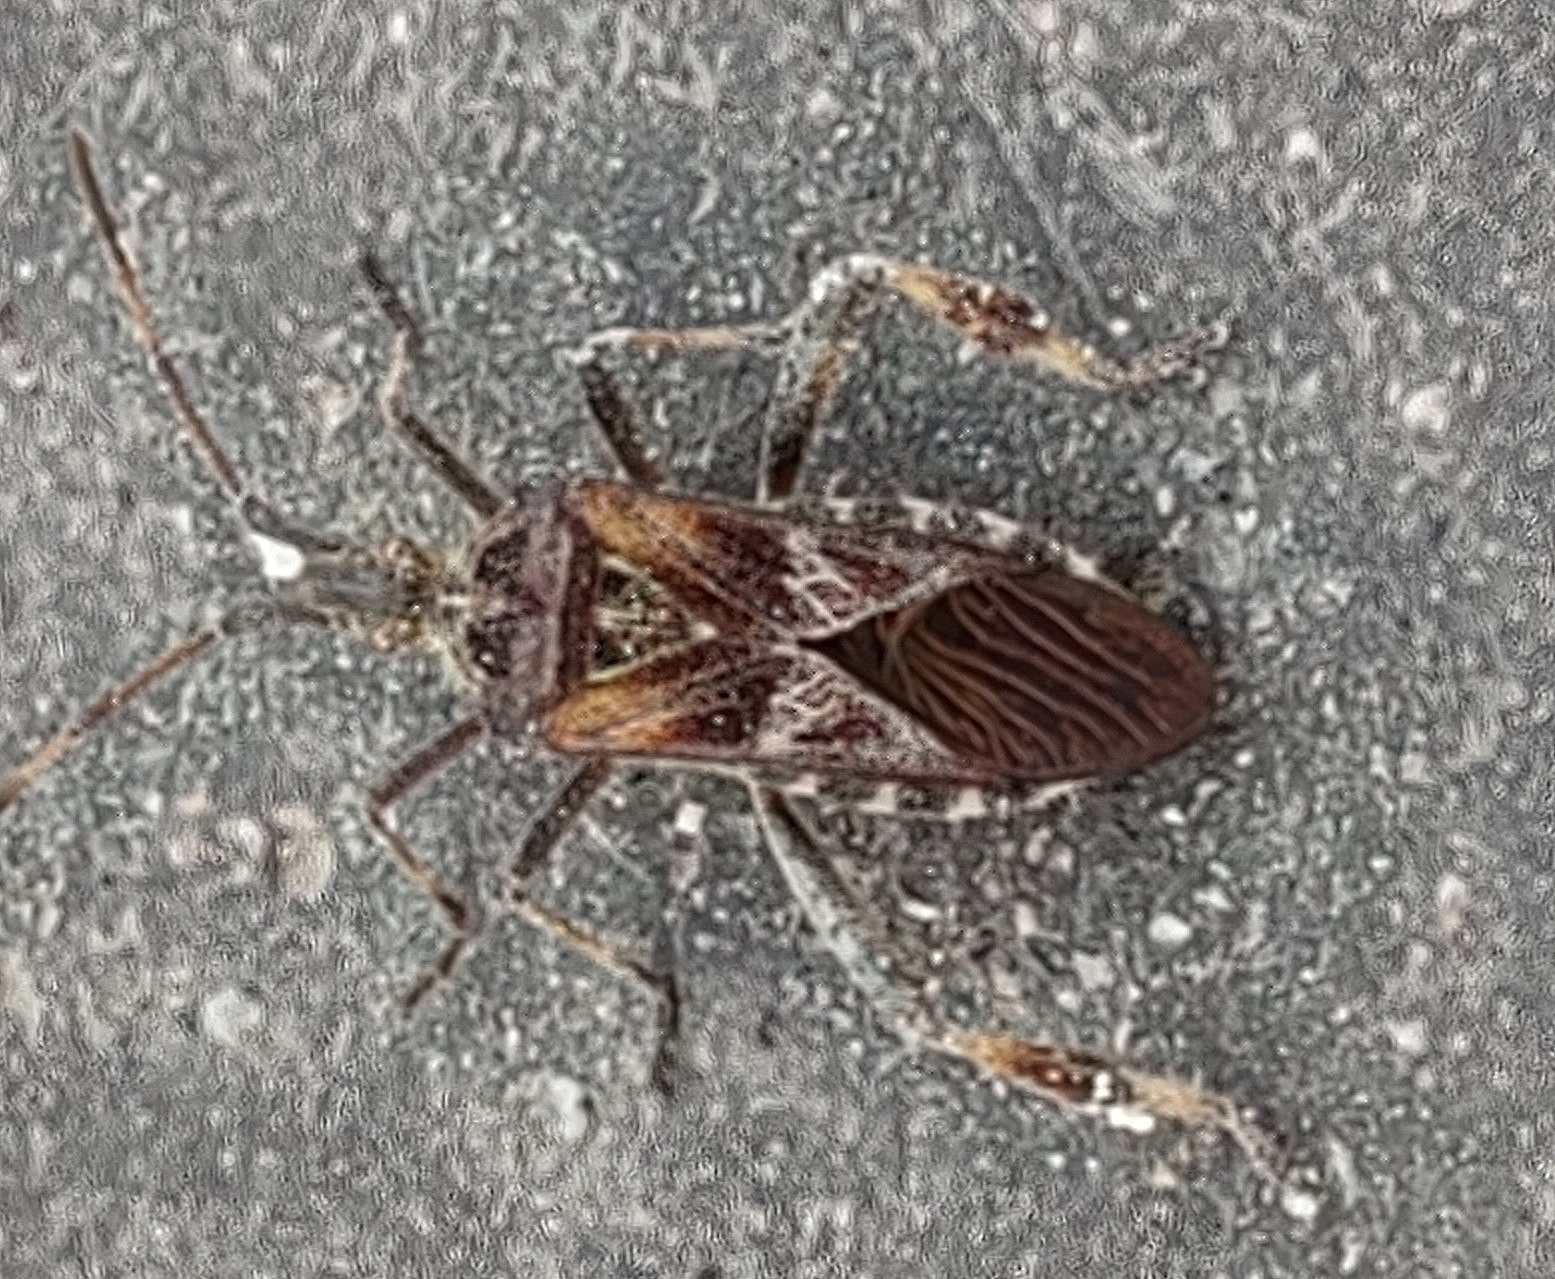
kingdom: Animalia
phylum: Arthropoda
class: Insecta
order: Hemiptera
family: Coreidae
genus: Leptoglossus
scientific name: Leptoglossus occidentalis
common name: Western conifer-seed bug
